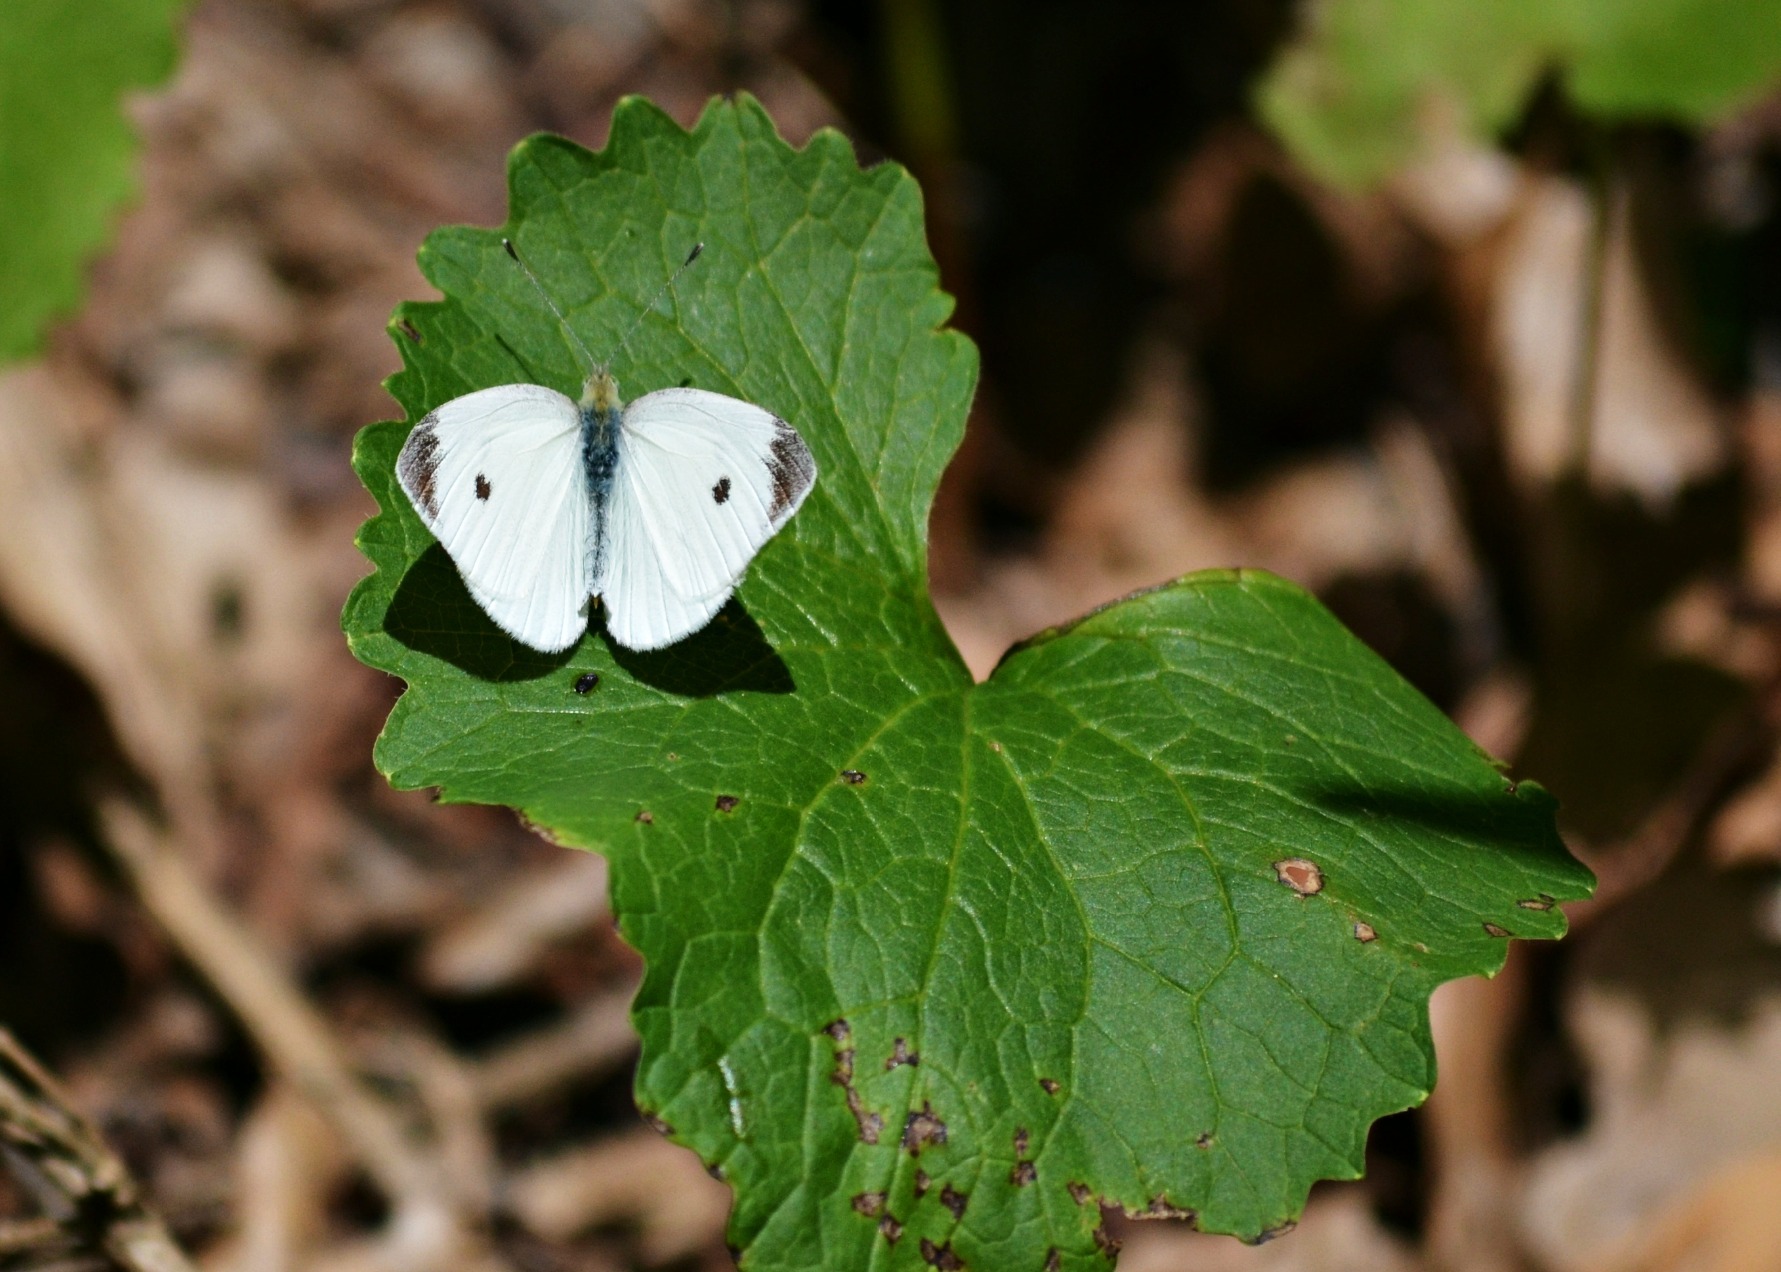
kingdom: Animalia
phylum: Arthropoda
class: Insecta
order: Lepidoptera
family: Pieridae
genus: Pieris
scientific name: Pieris rapae
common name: Small white
